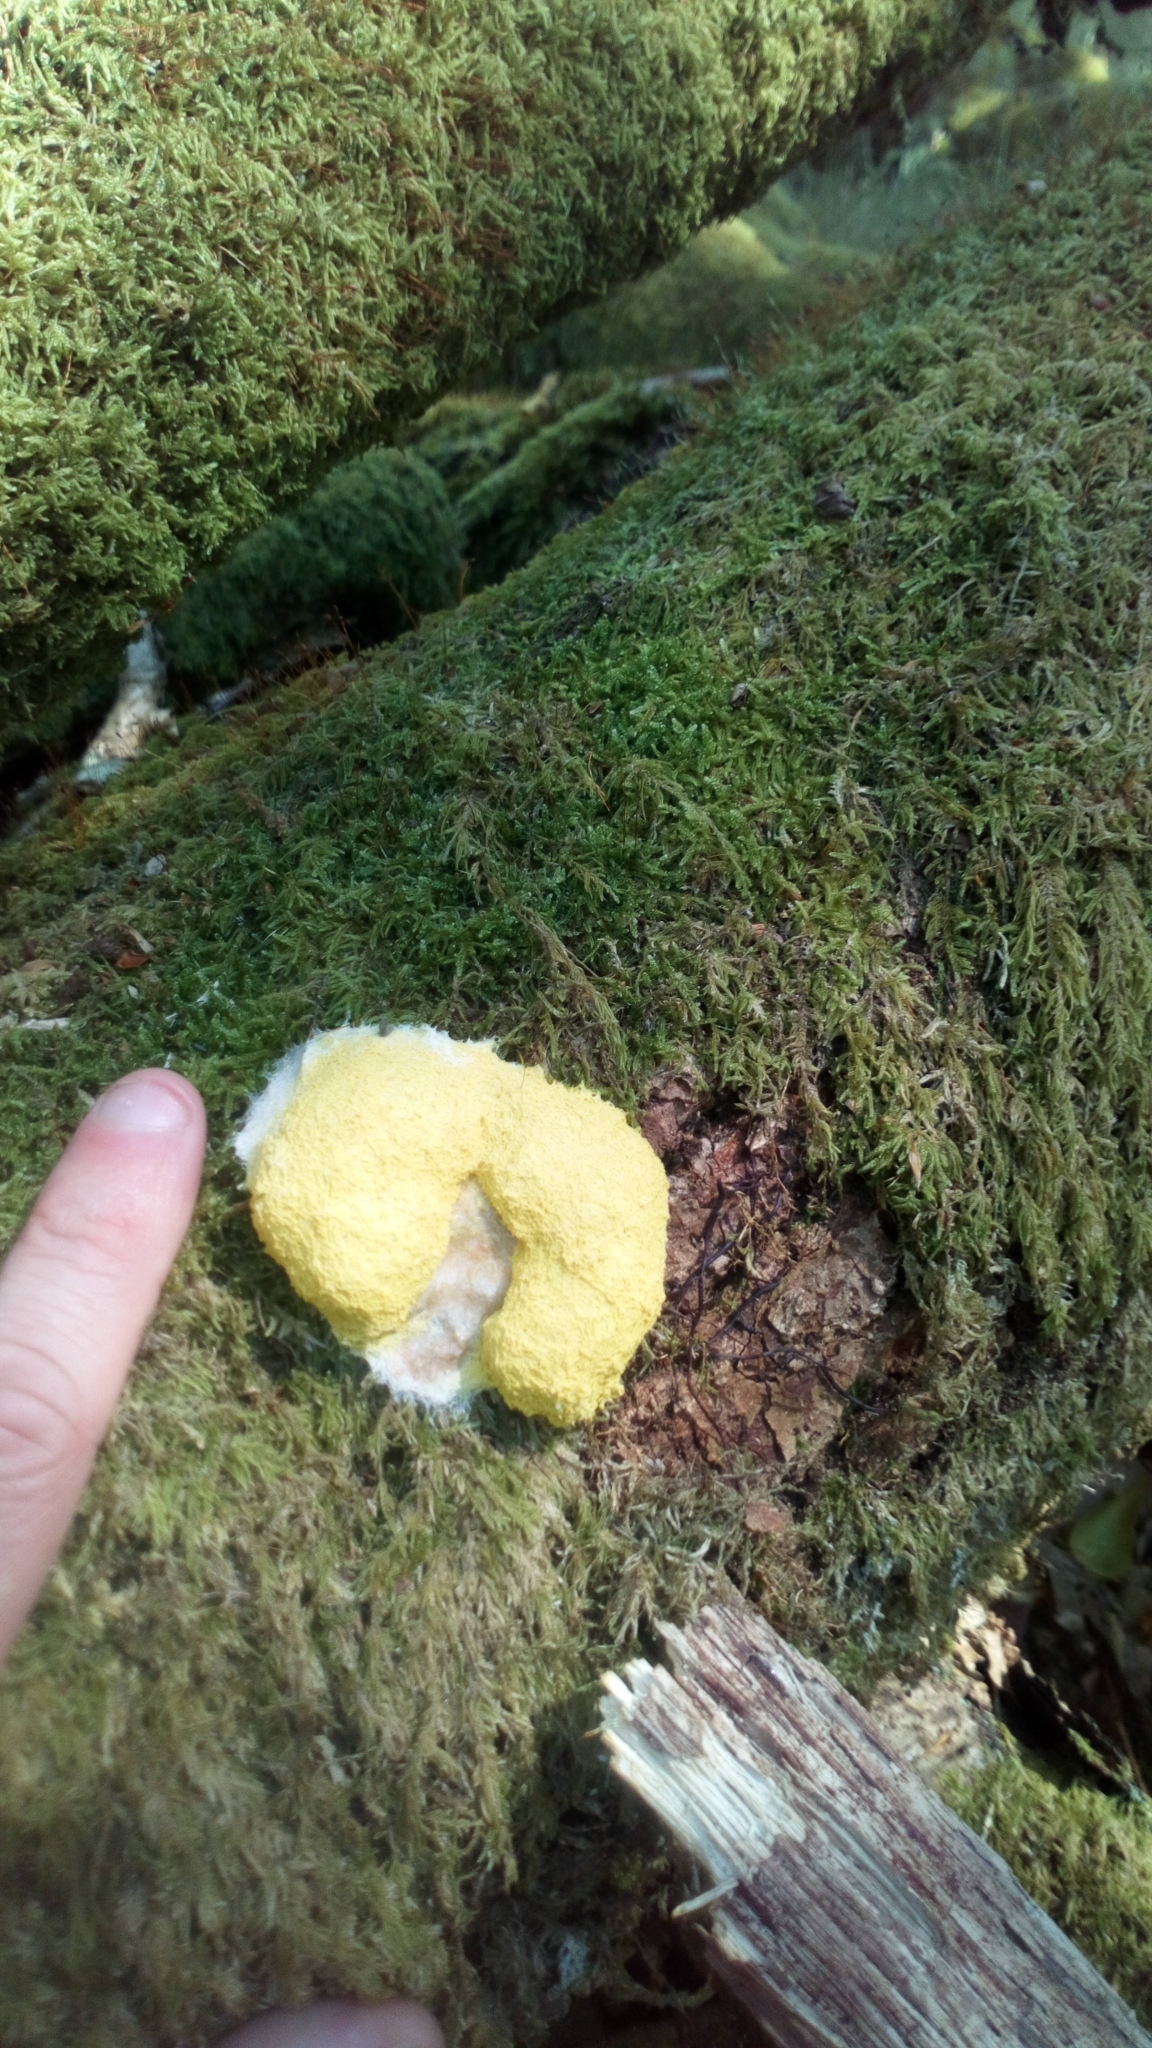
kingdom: Protozoa
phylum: Mycetozoa
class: Myxomycetes
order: Physarales
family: Physaraceae
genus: Fuligo
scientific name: Fuligo septica
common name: Dog vomit slime mold
